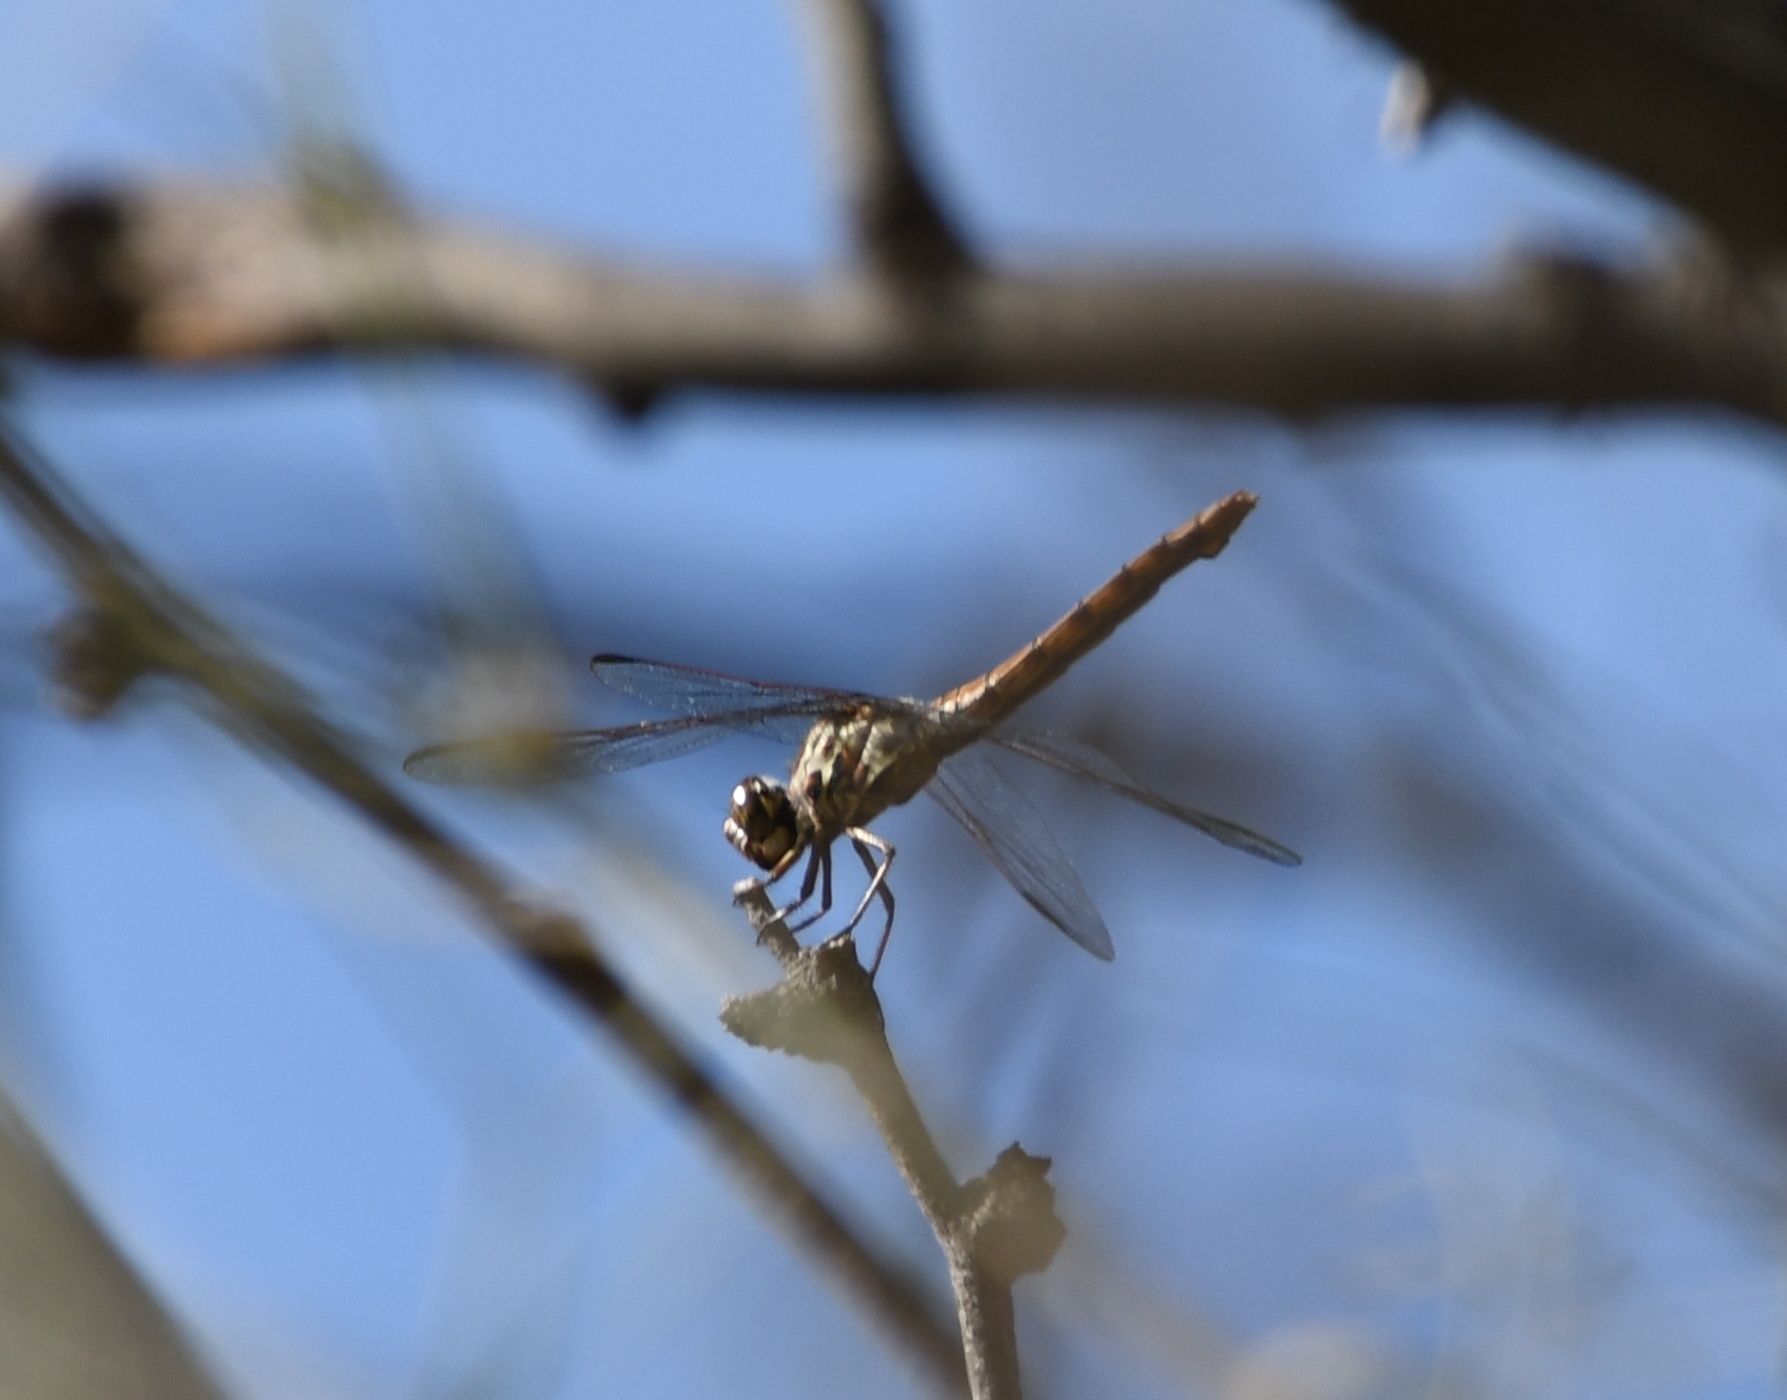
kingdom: Animalia
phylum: Arthropoda
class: Insecta
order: Odonata
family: Libellulidae
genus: Orthemis
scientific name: Orthemis ferruginea
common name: Roseate skimmer
